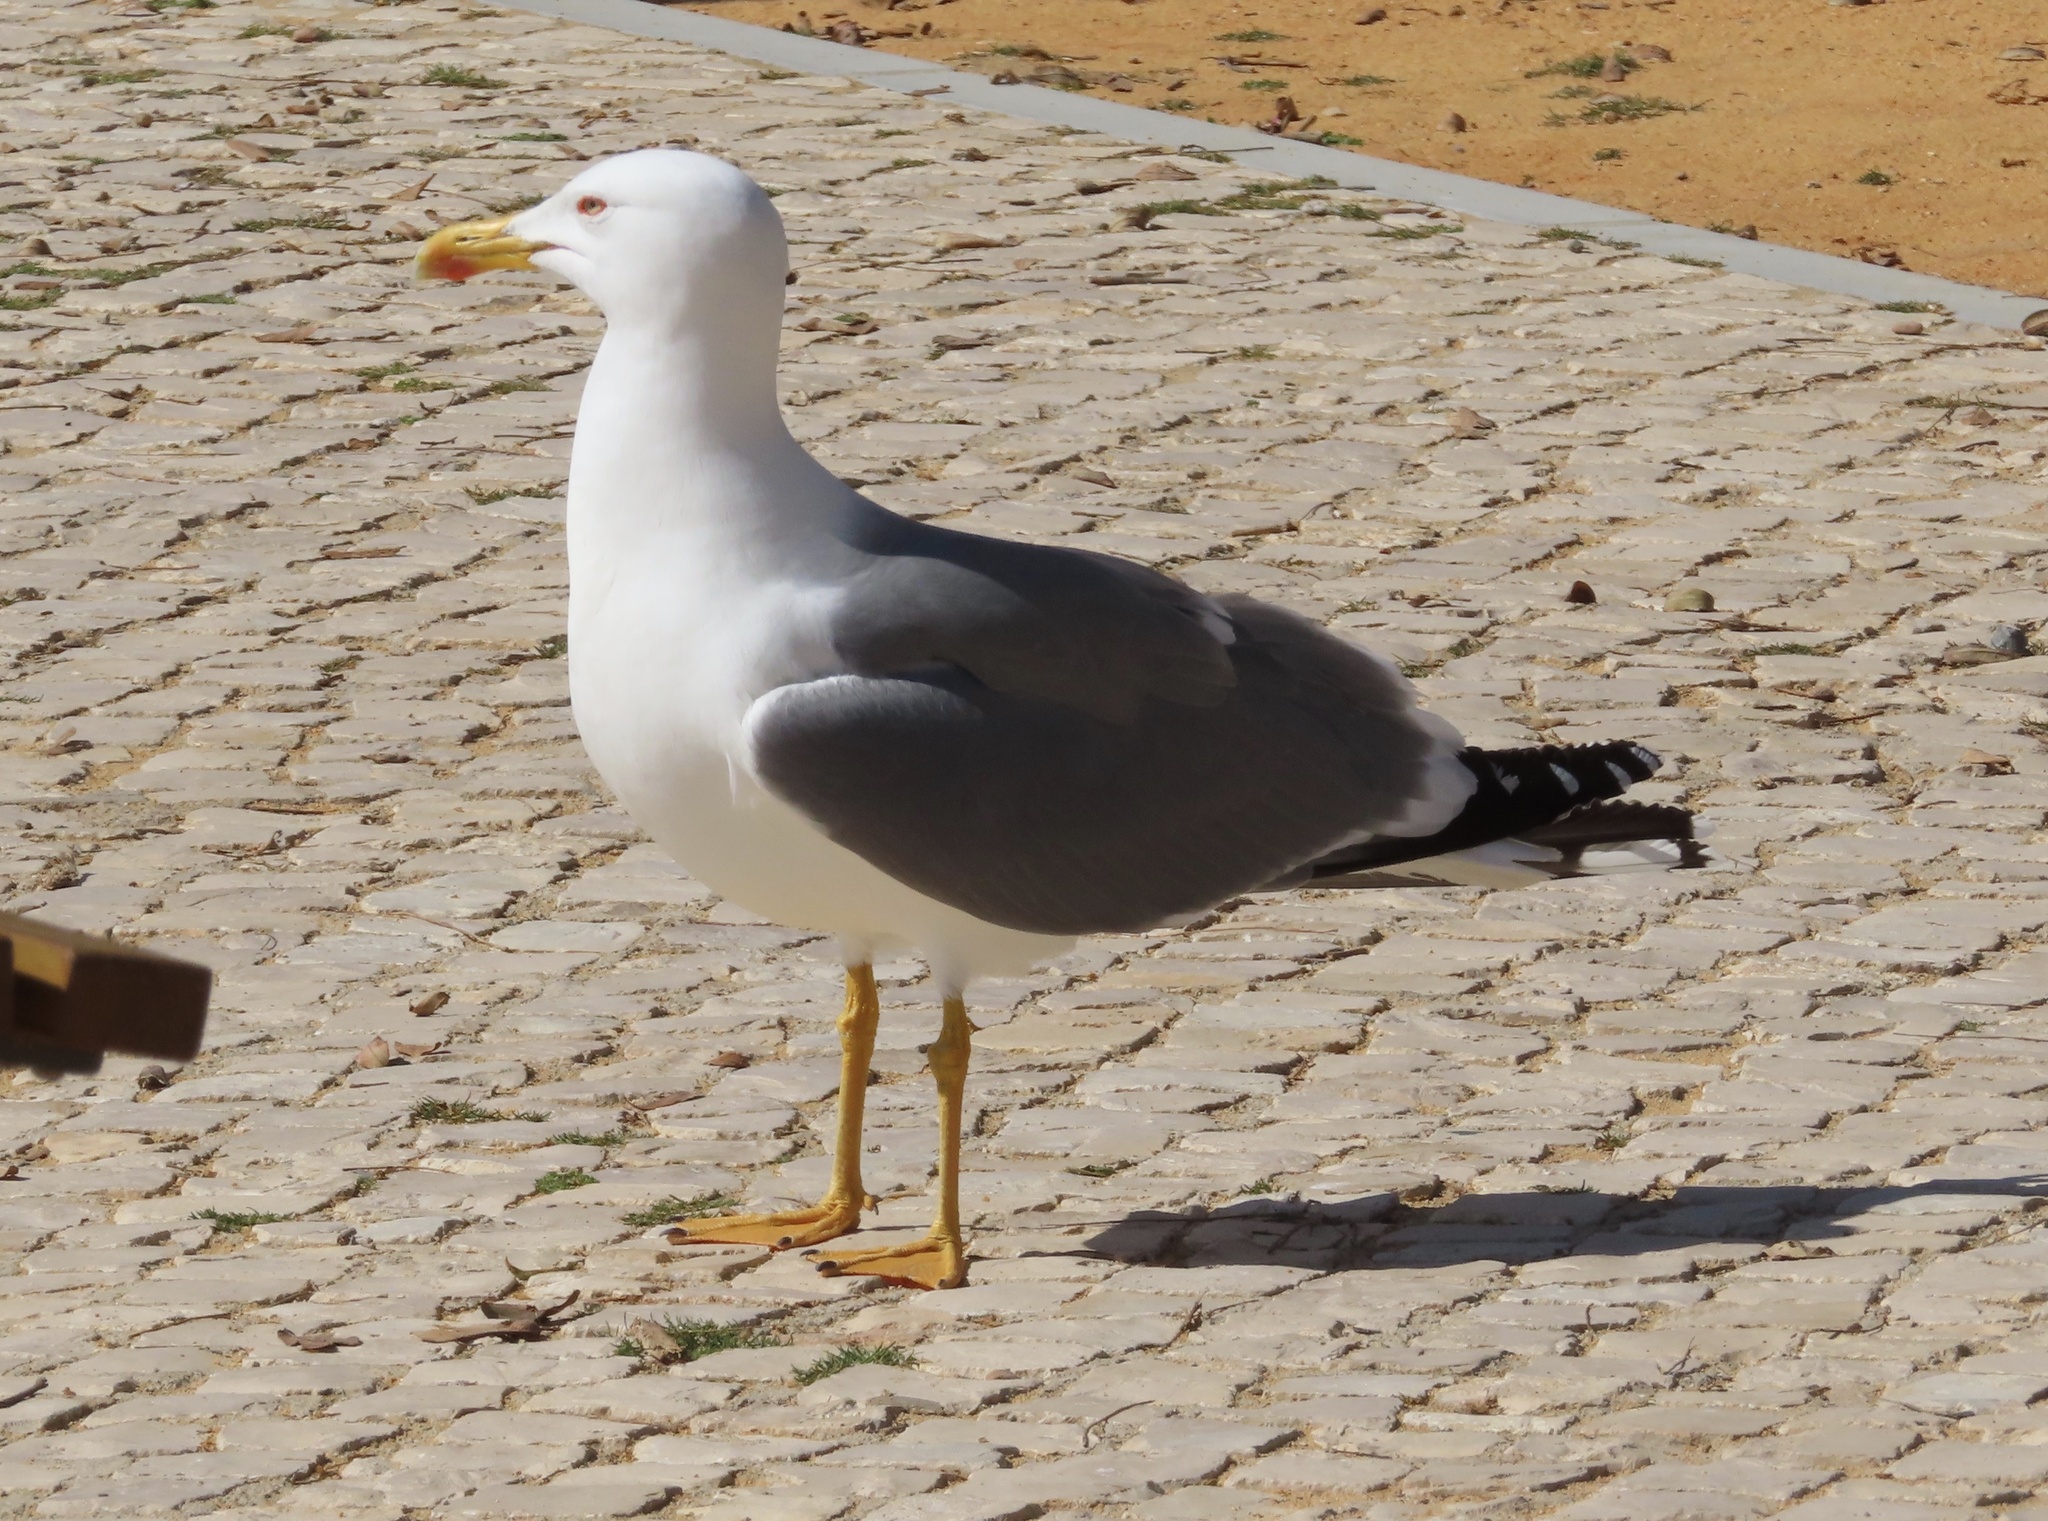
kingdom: Animalia
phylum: Chordata
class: Aves
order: Charadriiformes
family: Laridae
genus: Larus
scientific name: Larus michahellis
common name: Yellow-legged gull
